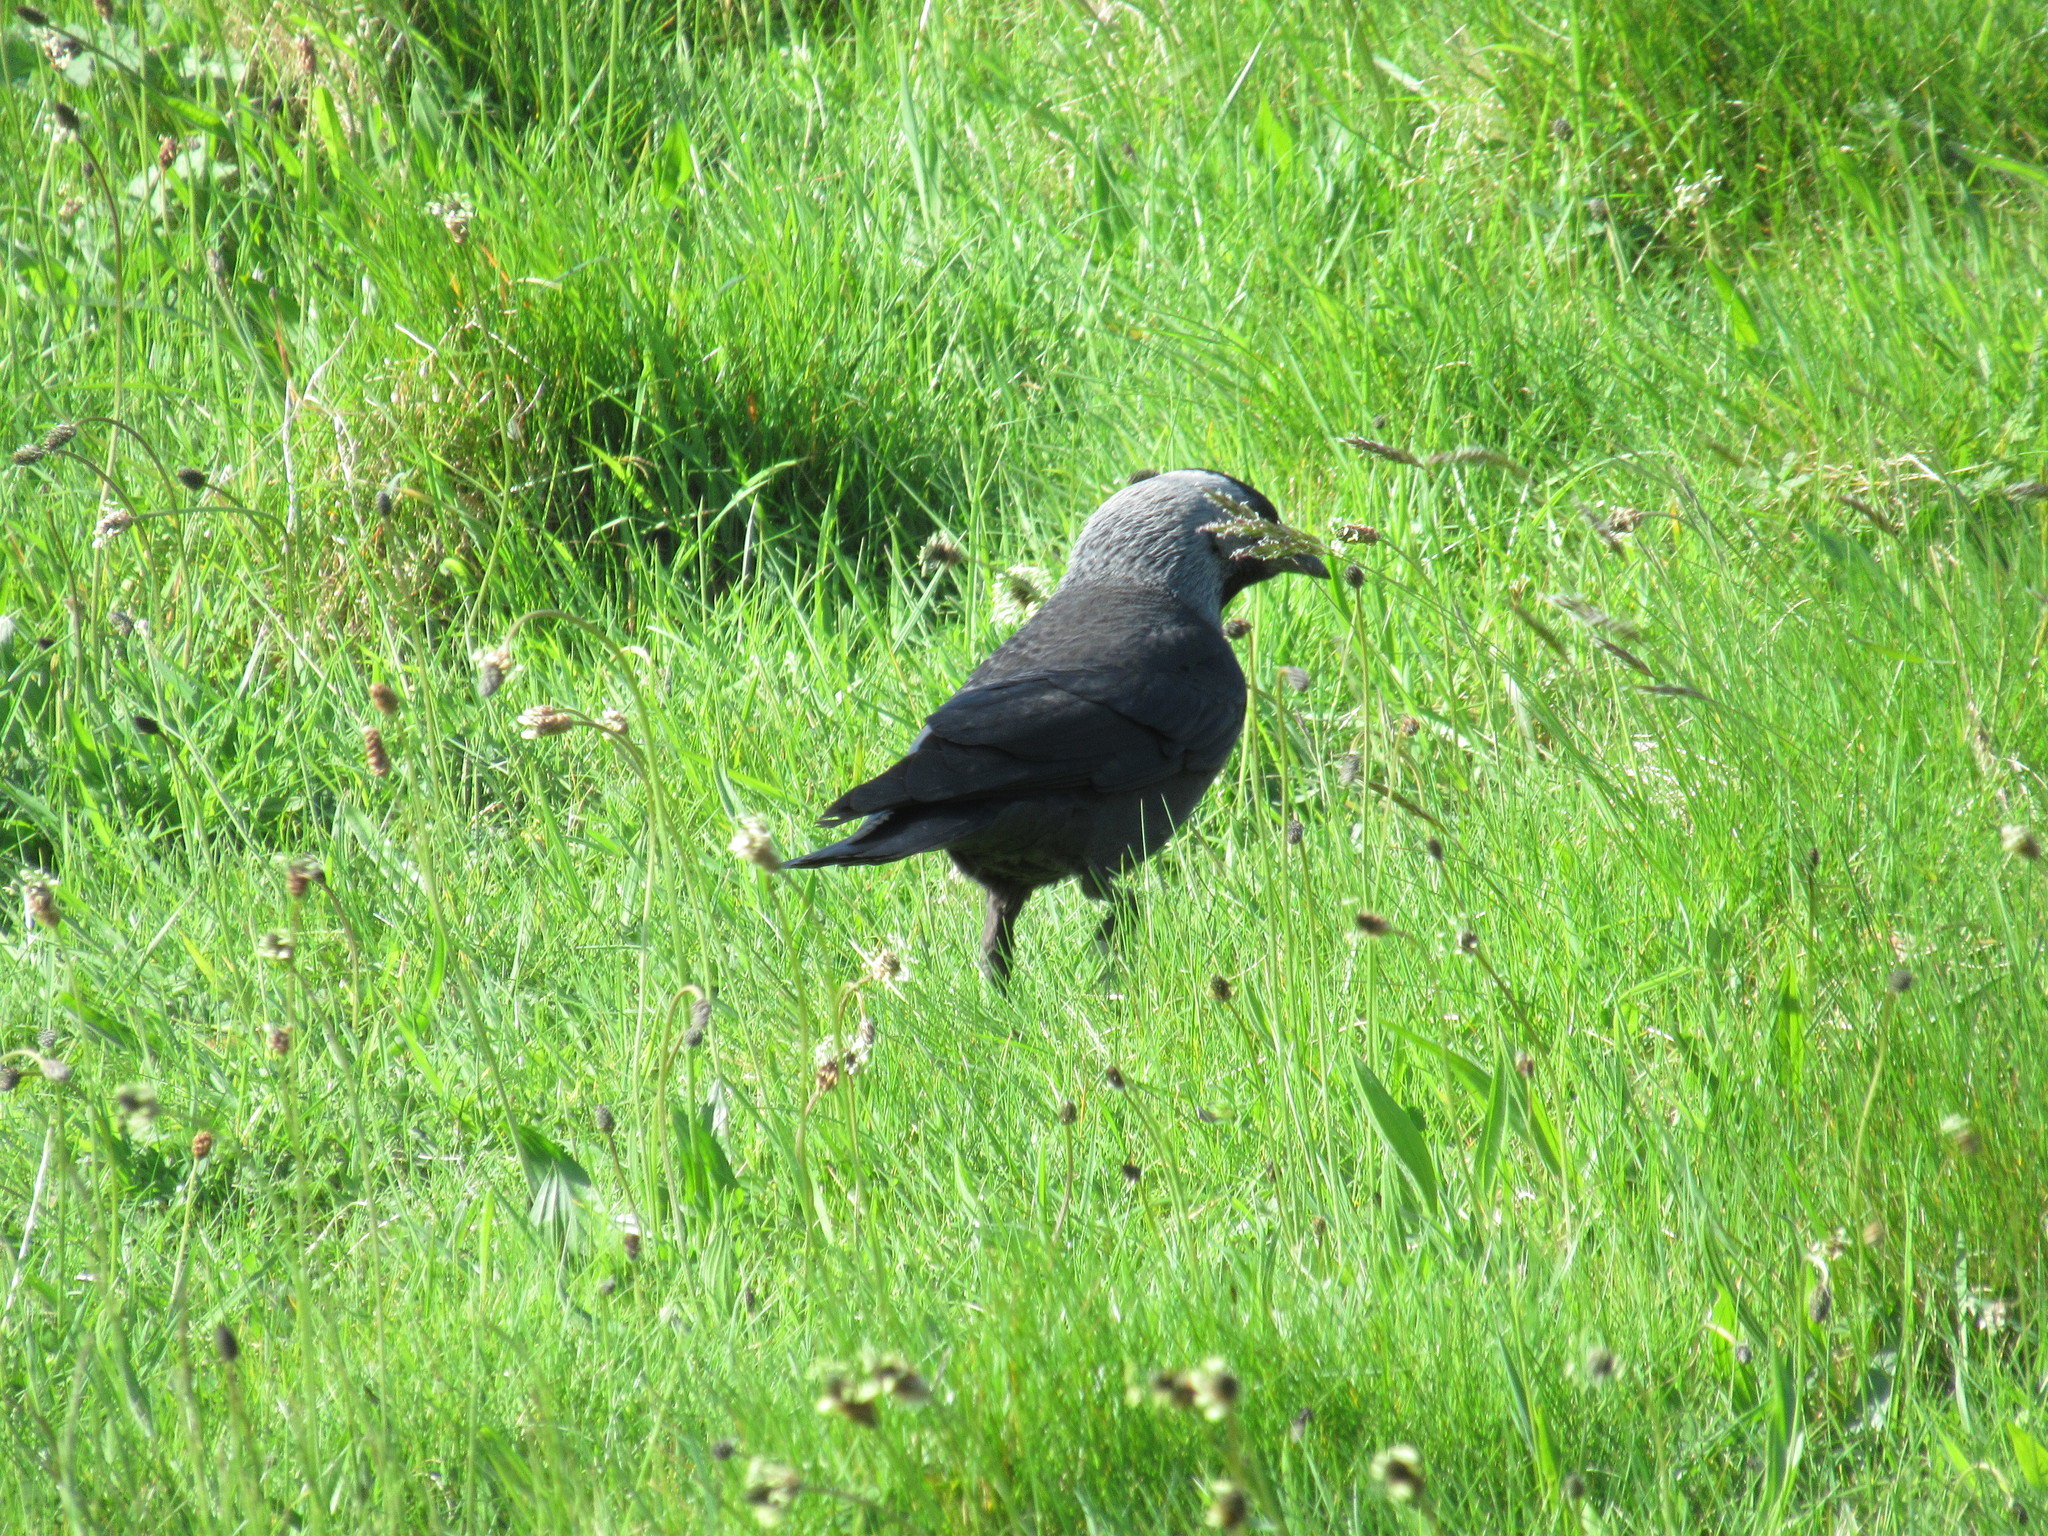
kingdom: Animalia
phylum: Chordata
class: Aves
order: Passeriformes
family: Corvidae
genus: Coloeus
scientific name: Coloeus monedula
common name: Western jackdaw
